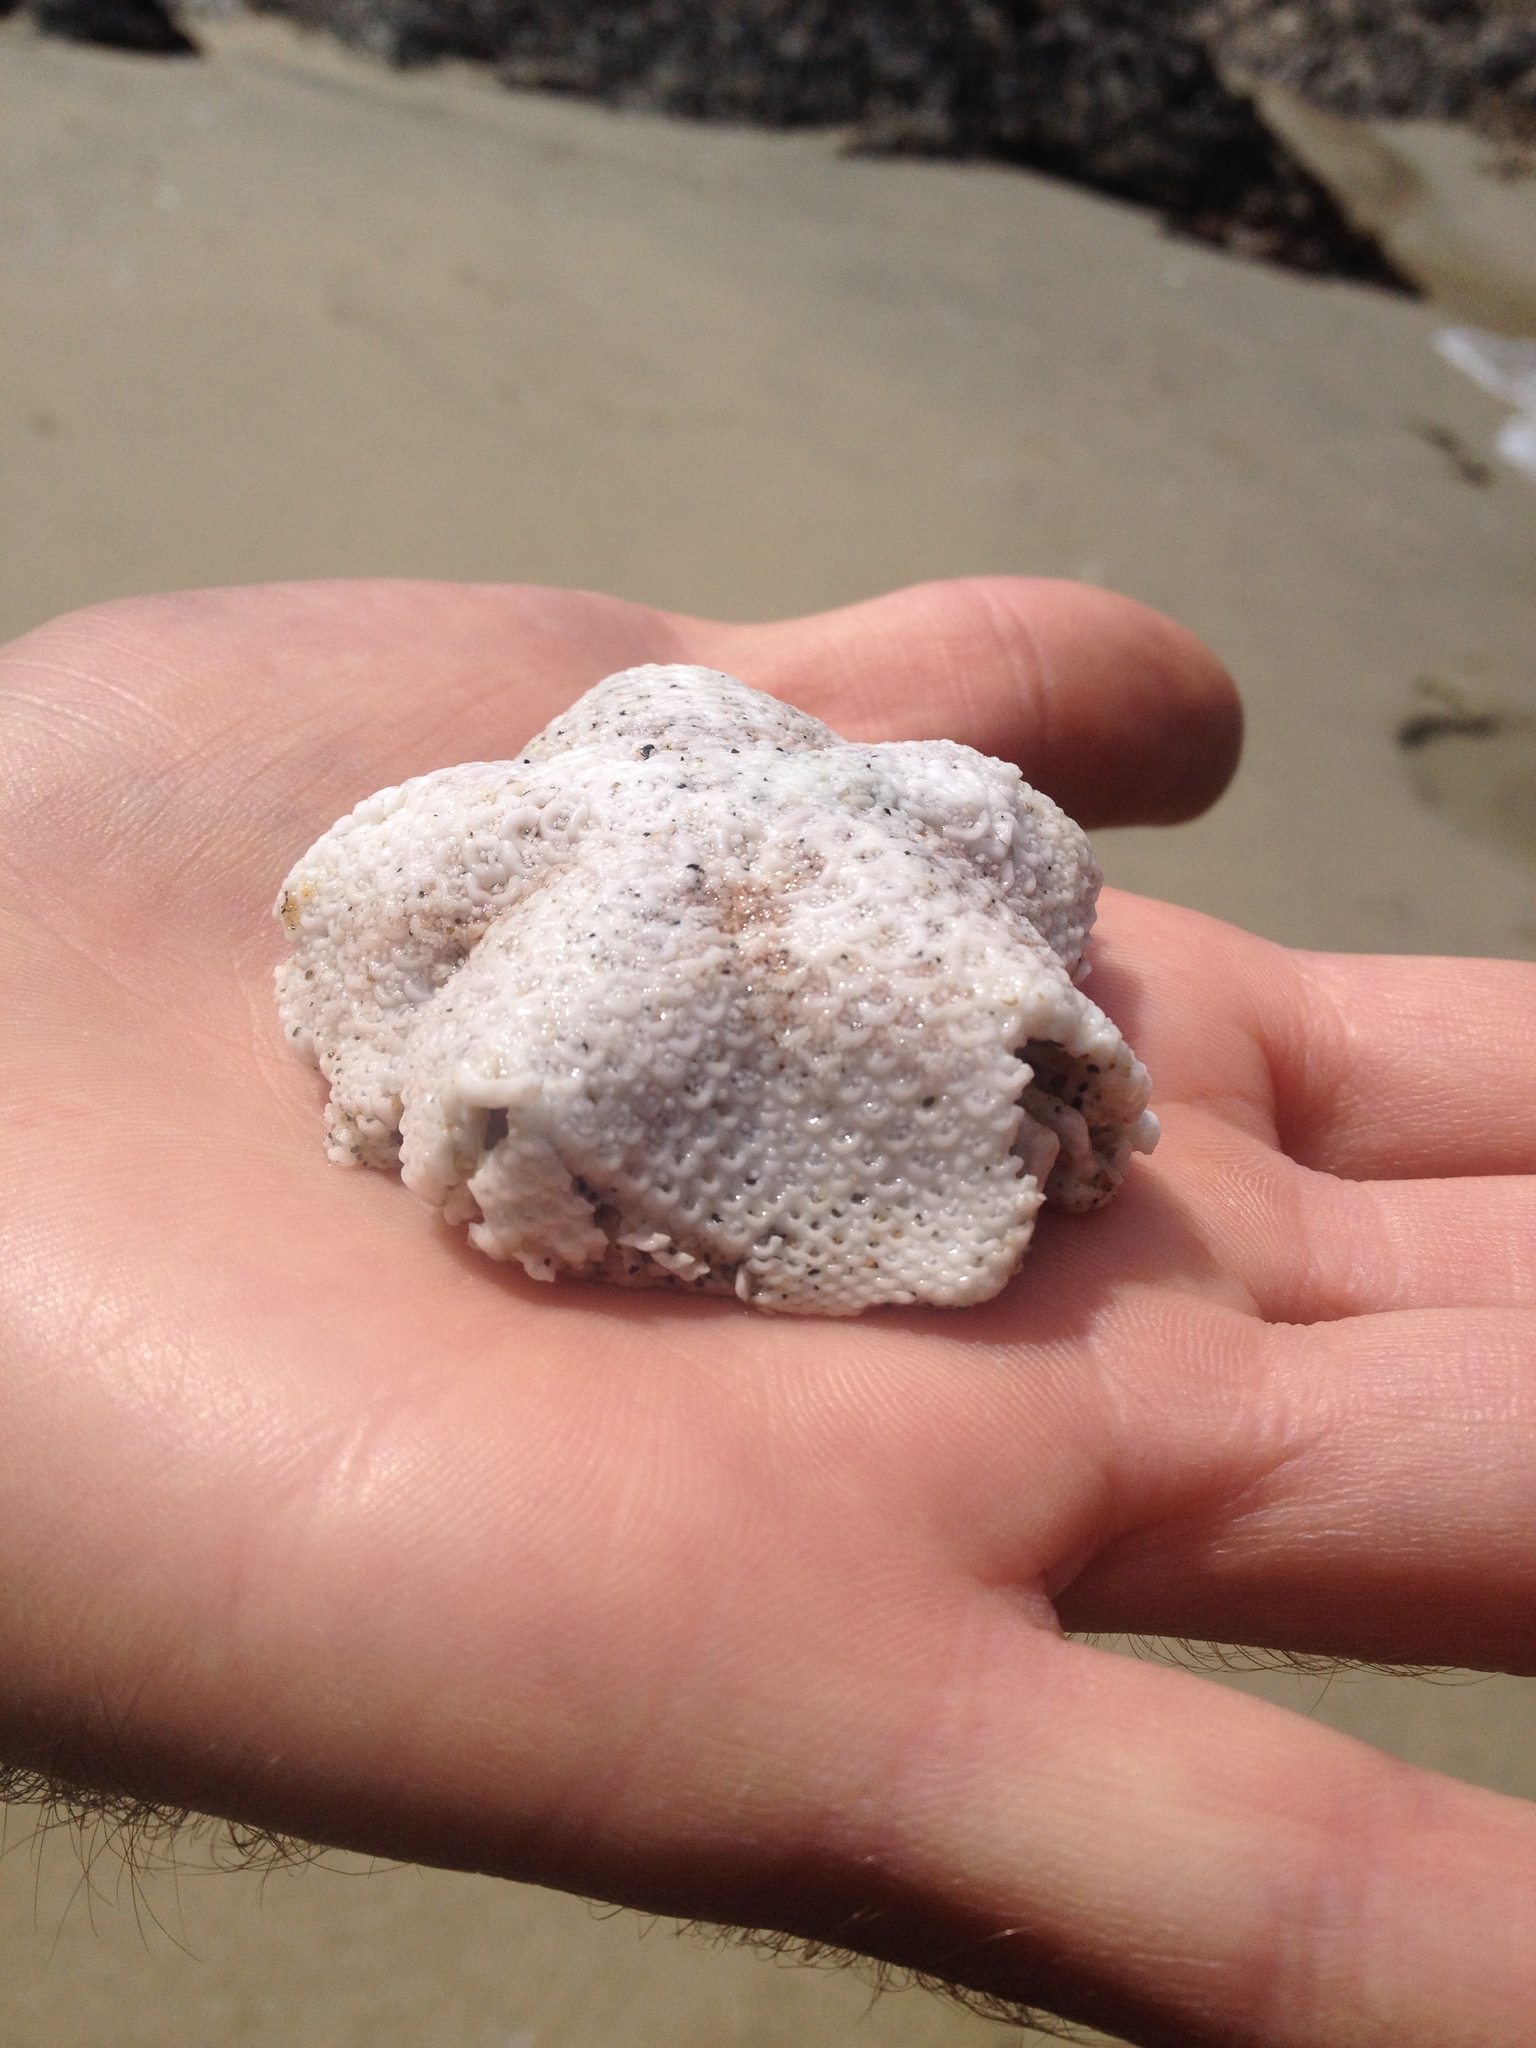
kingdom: Animalia
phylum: Echinodermata
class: Asteroidea
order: Valvatida
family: Asterinidae
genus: Patiria
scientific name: Patiria miniata
